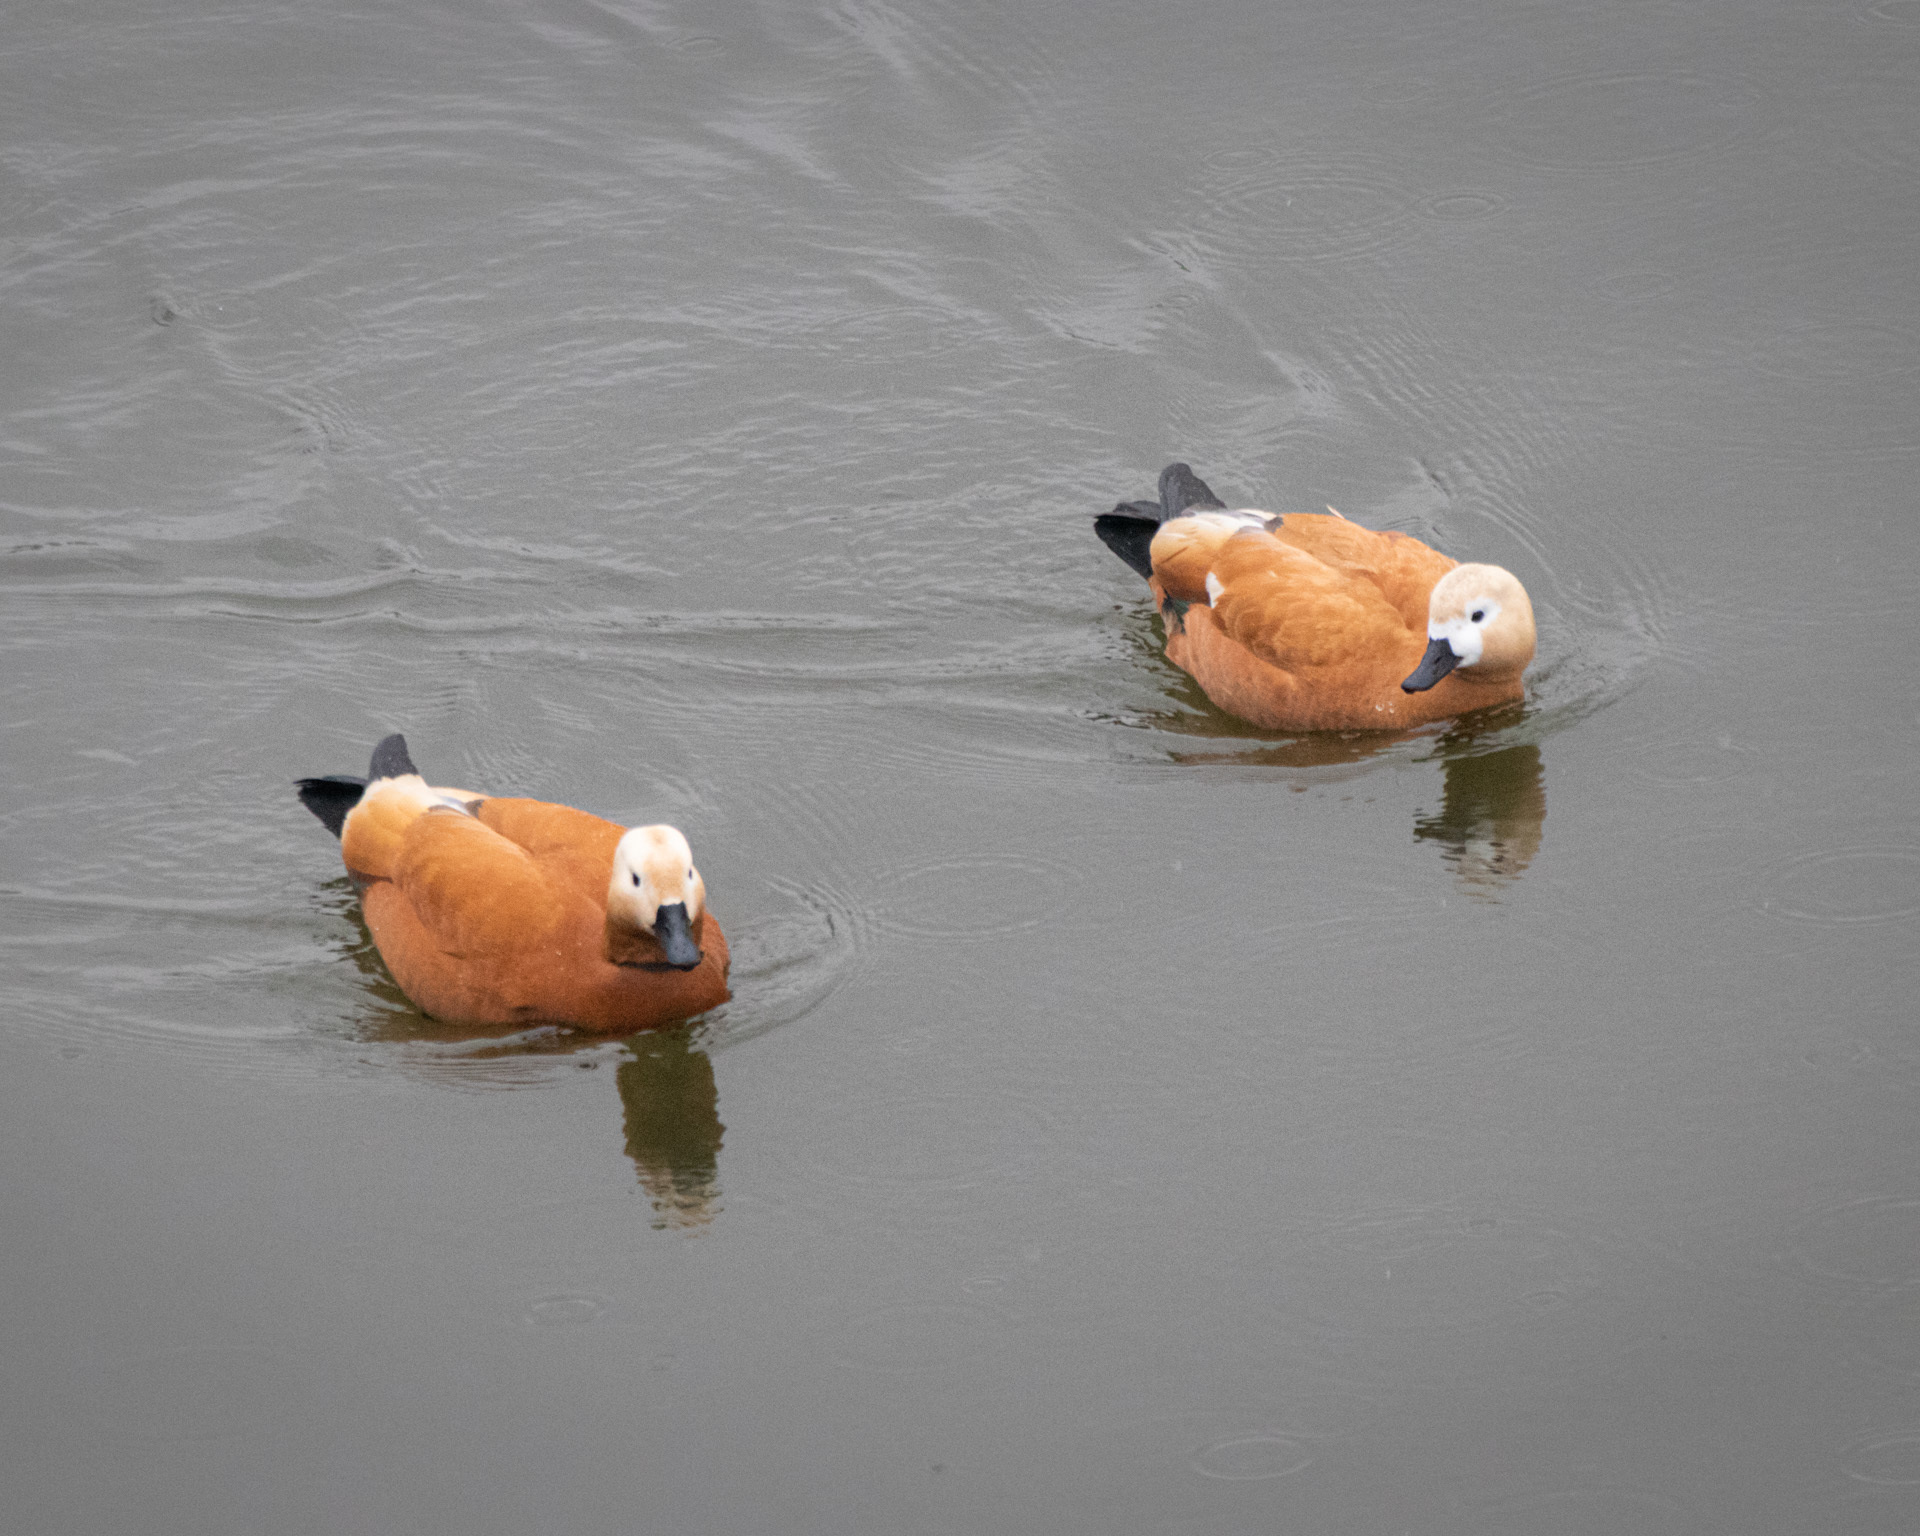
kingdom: Animalia
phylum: Chordata
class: Aves
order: Anseriformes
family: Anatidae
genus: Tadorna
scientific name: Tadorna ferruginea
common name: Ruddy shelduck
